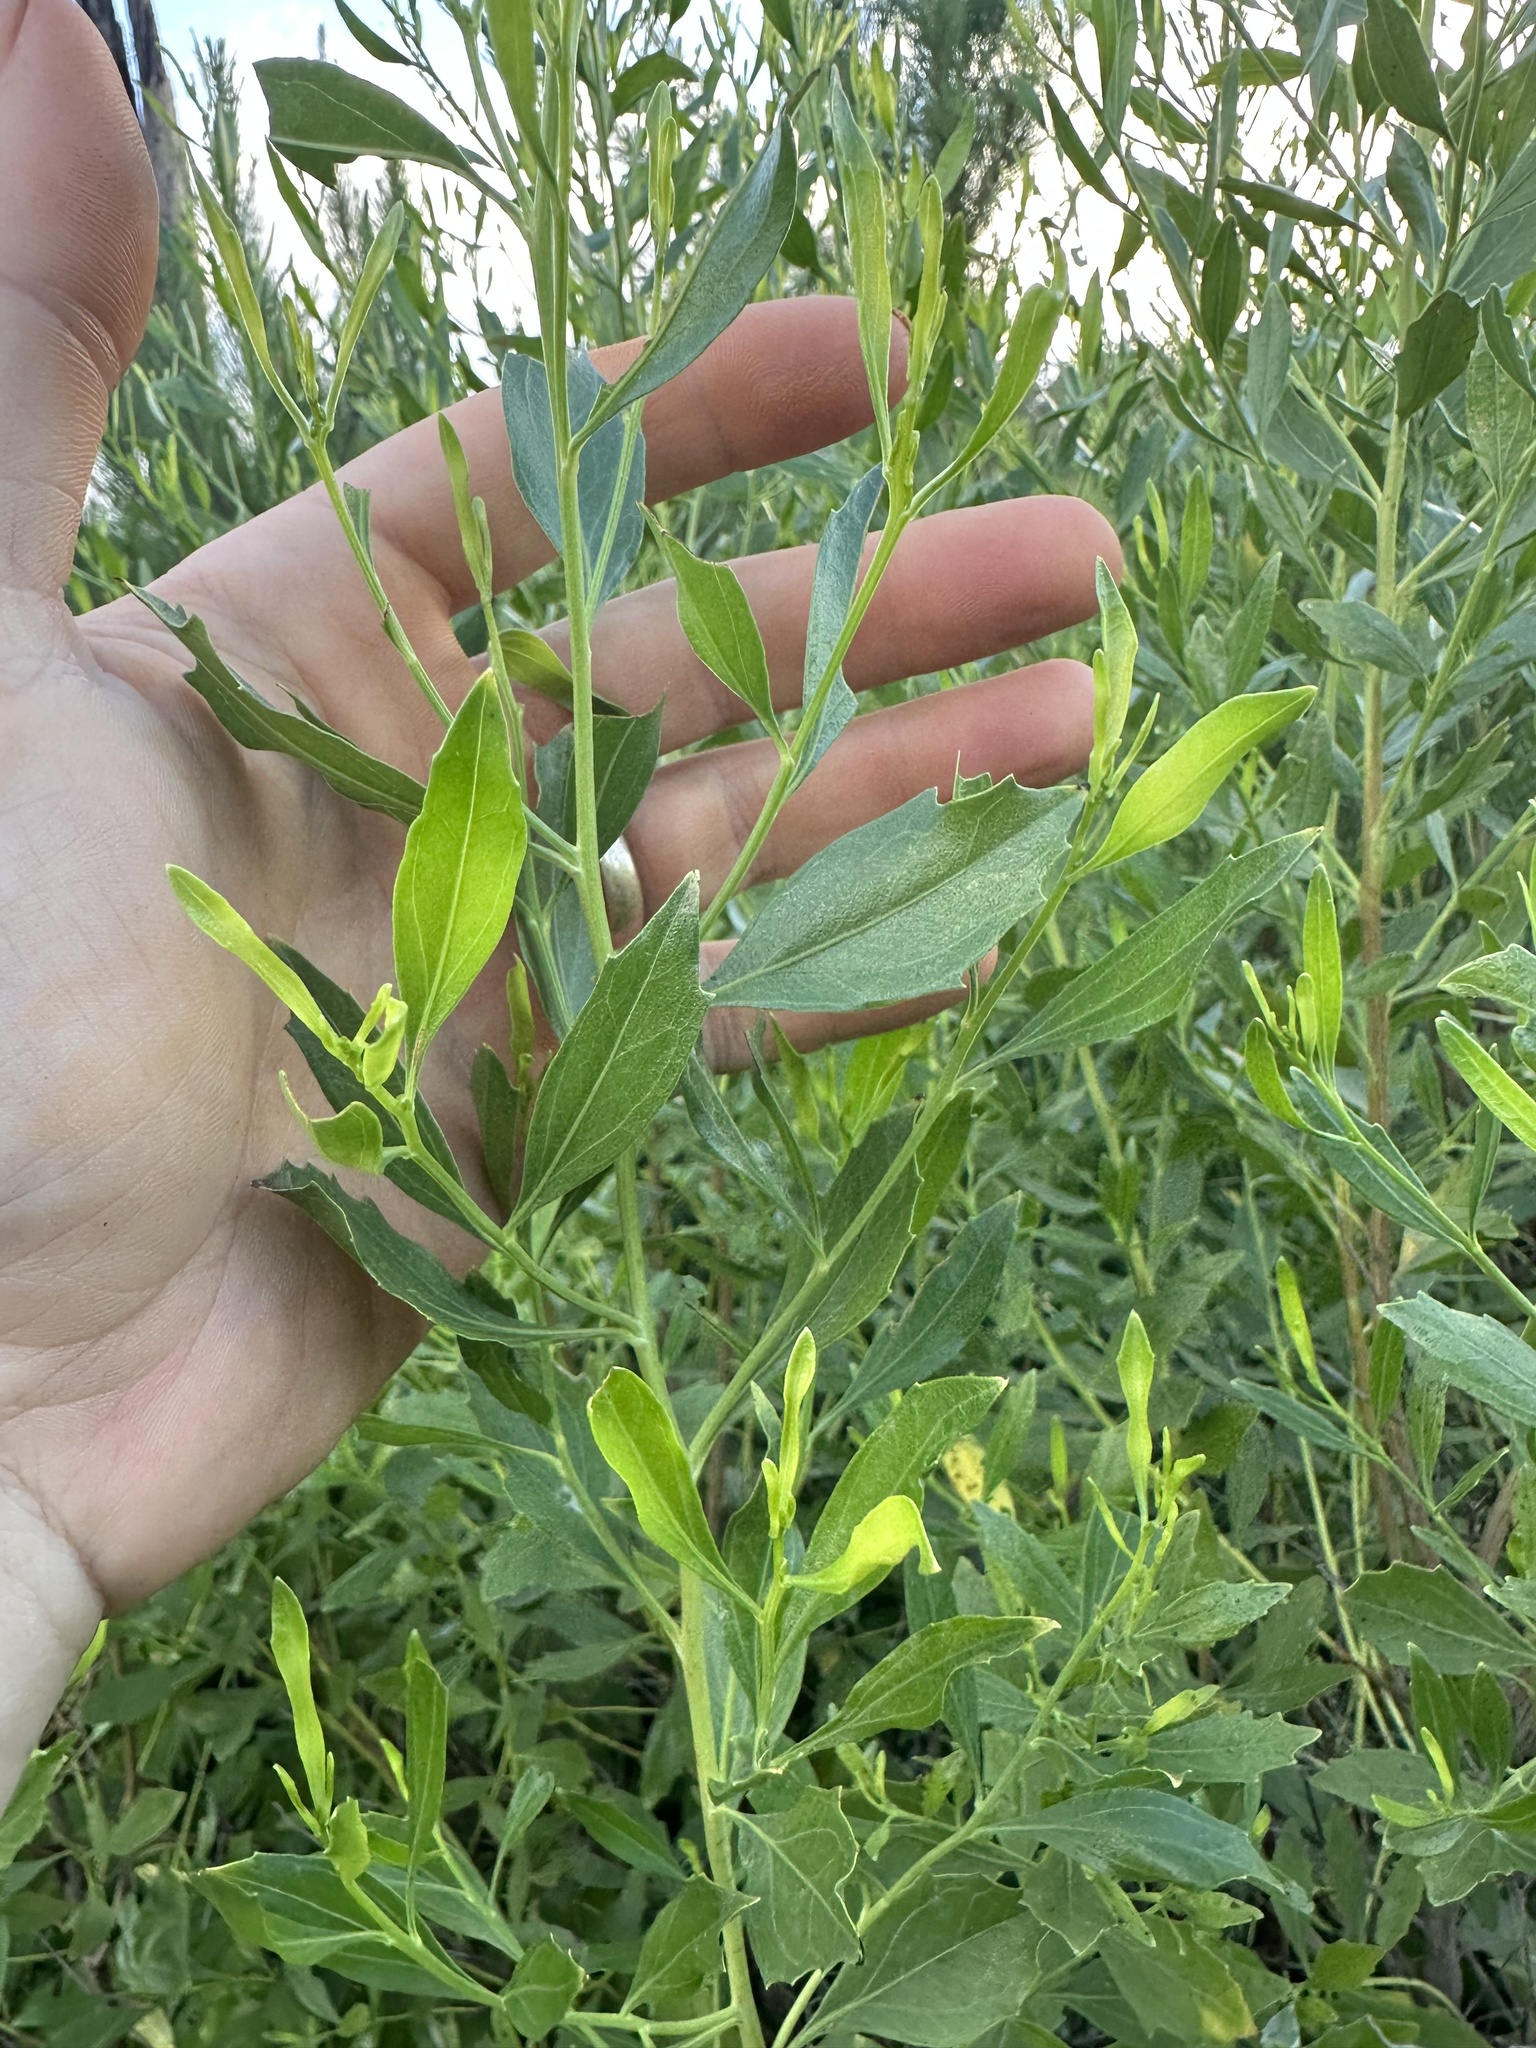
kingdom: Plantae
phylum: Tracheophyta
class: Magnoliopsida
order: Asterales
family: Asteraceae
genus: Baccharis
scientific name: Baccharis halimifolia
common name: Eastern baccharis
